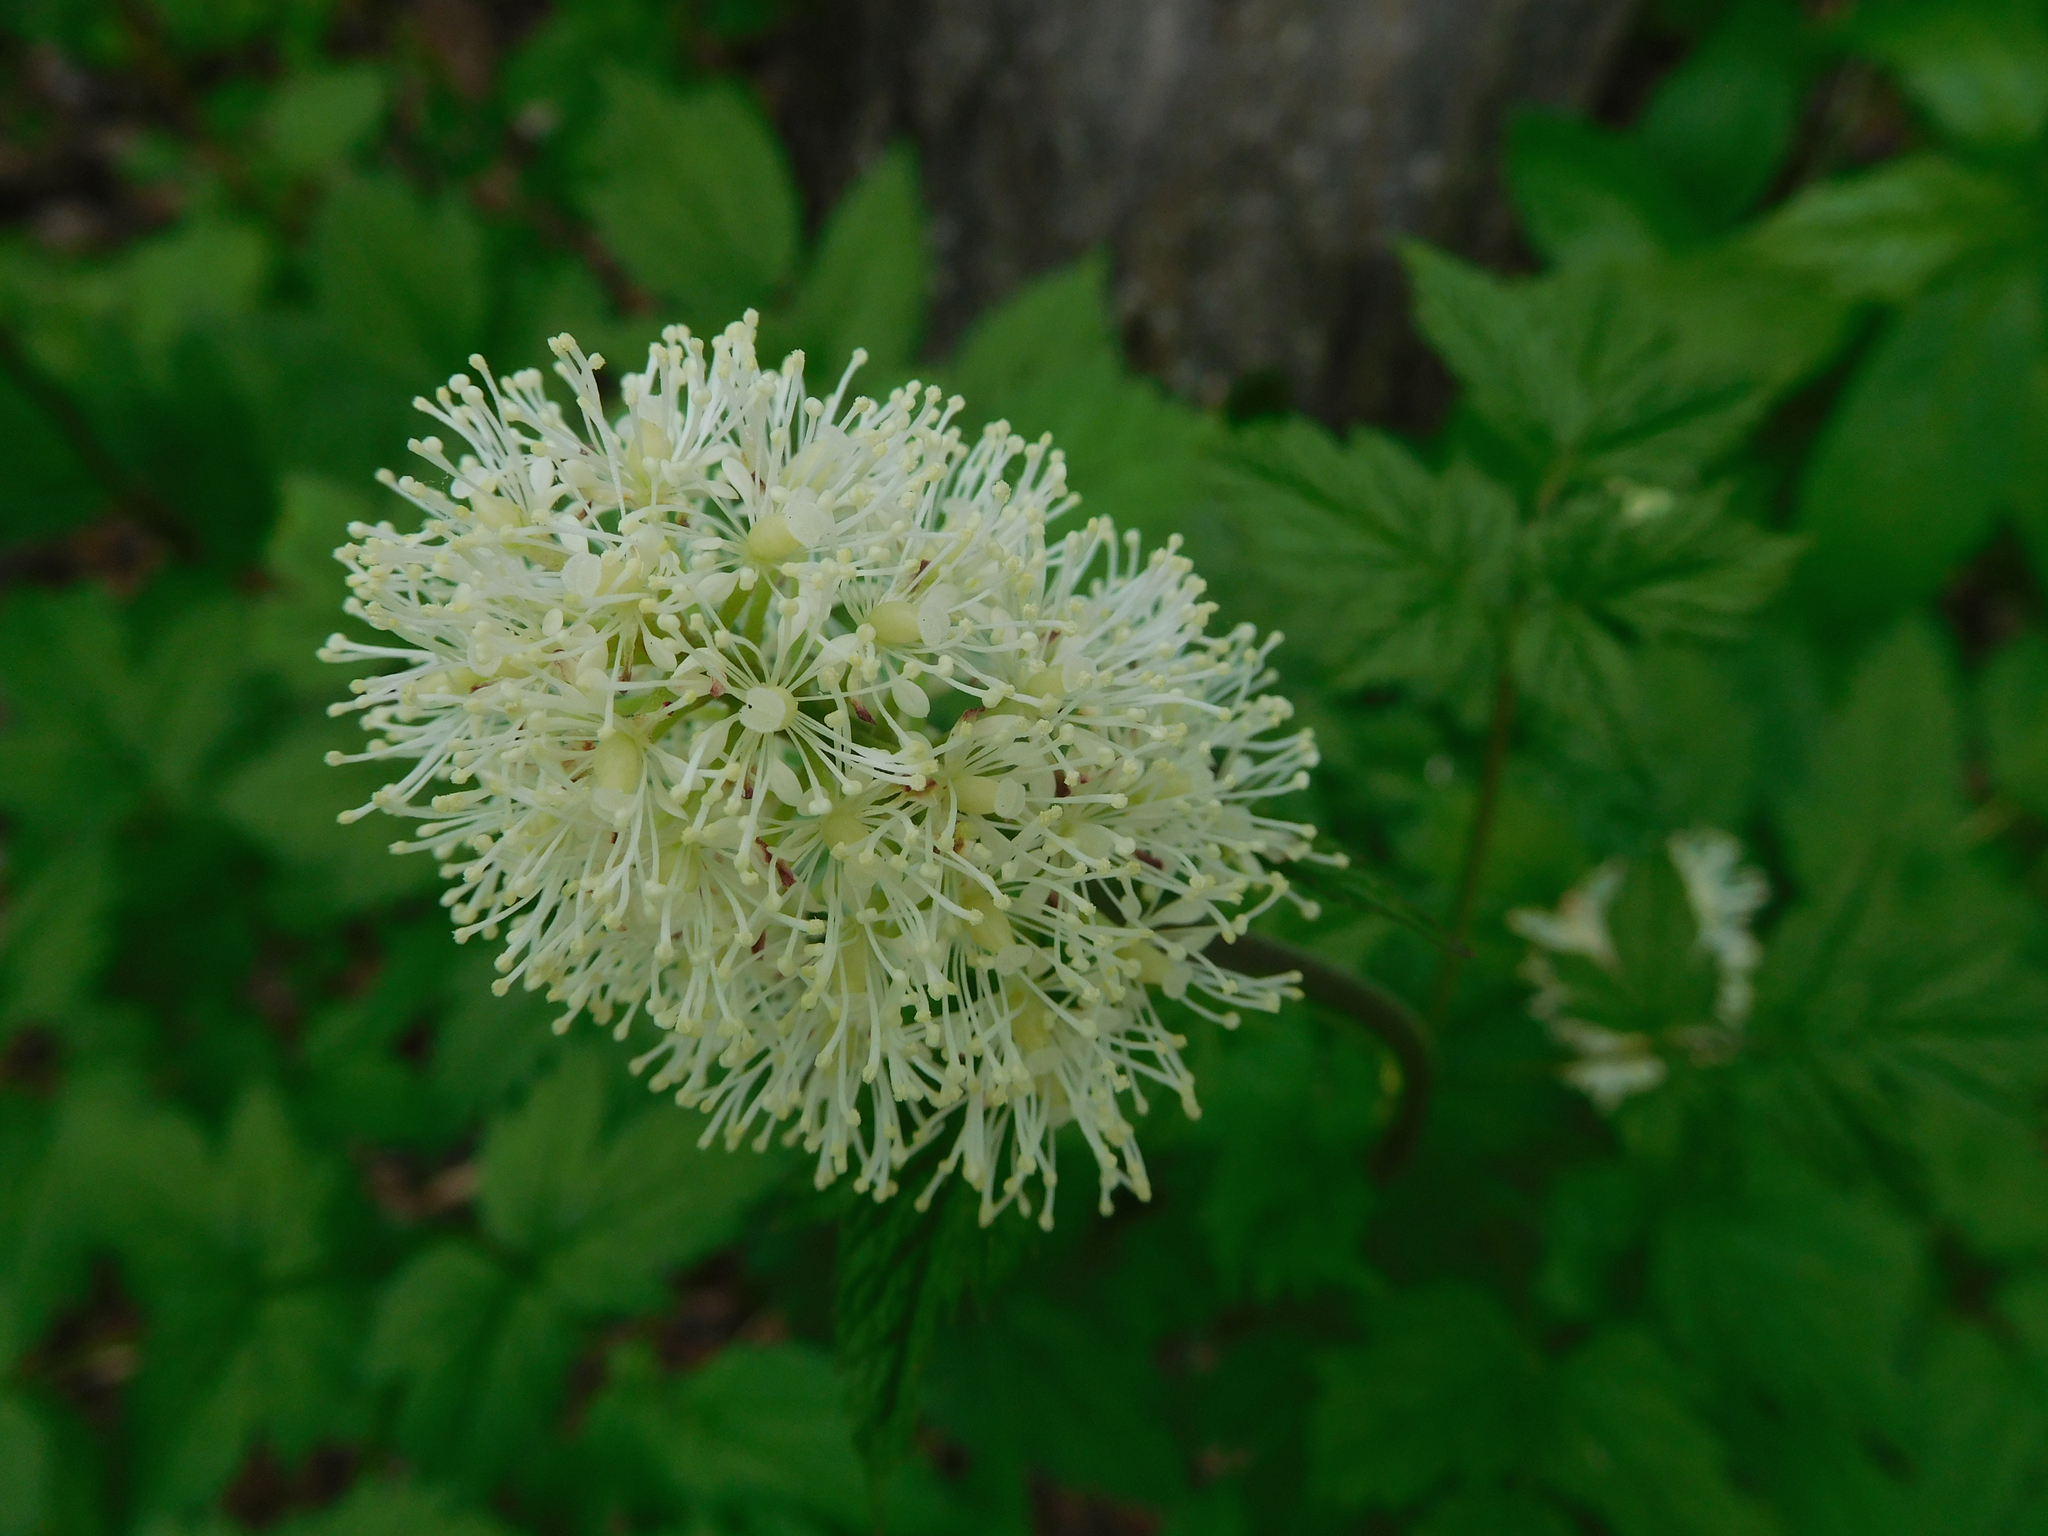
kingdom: Plantae
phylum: Tracheophyta
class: Magnoliopsida
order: Ranunculales
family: Ranunculaceae
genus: Actaea
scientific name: Actaea rubra
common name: Red baneberry
